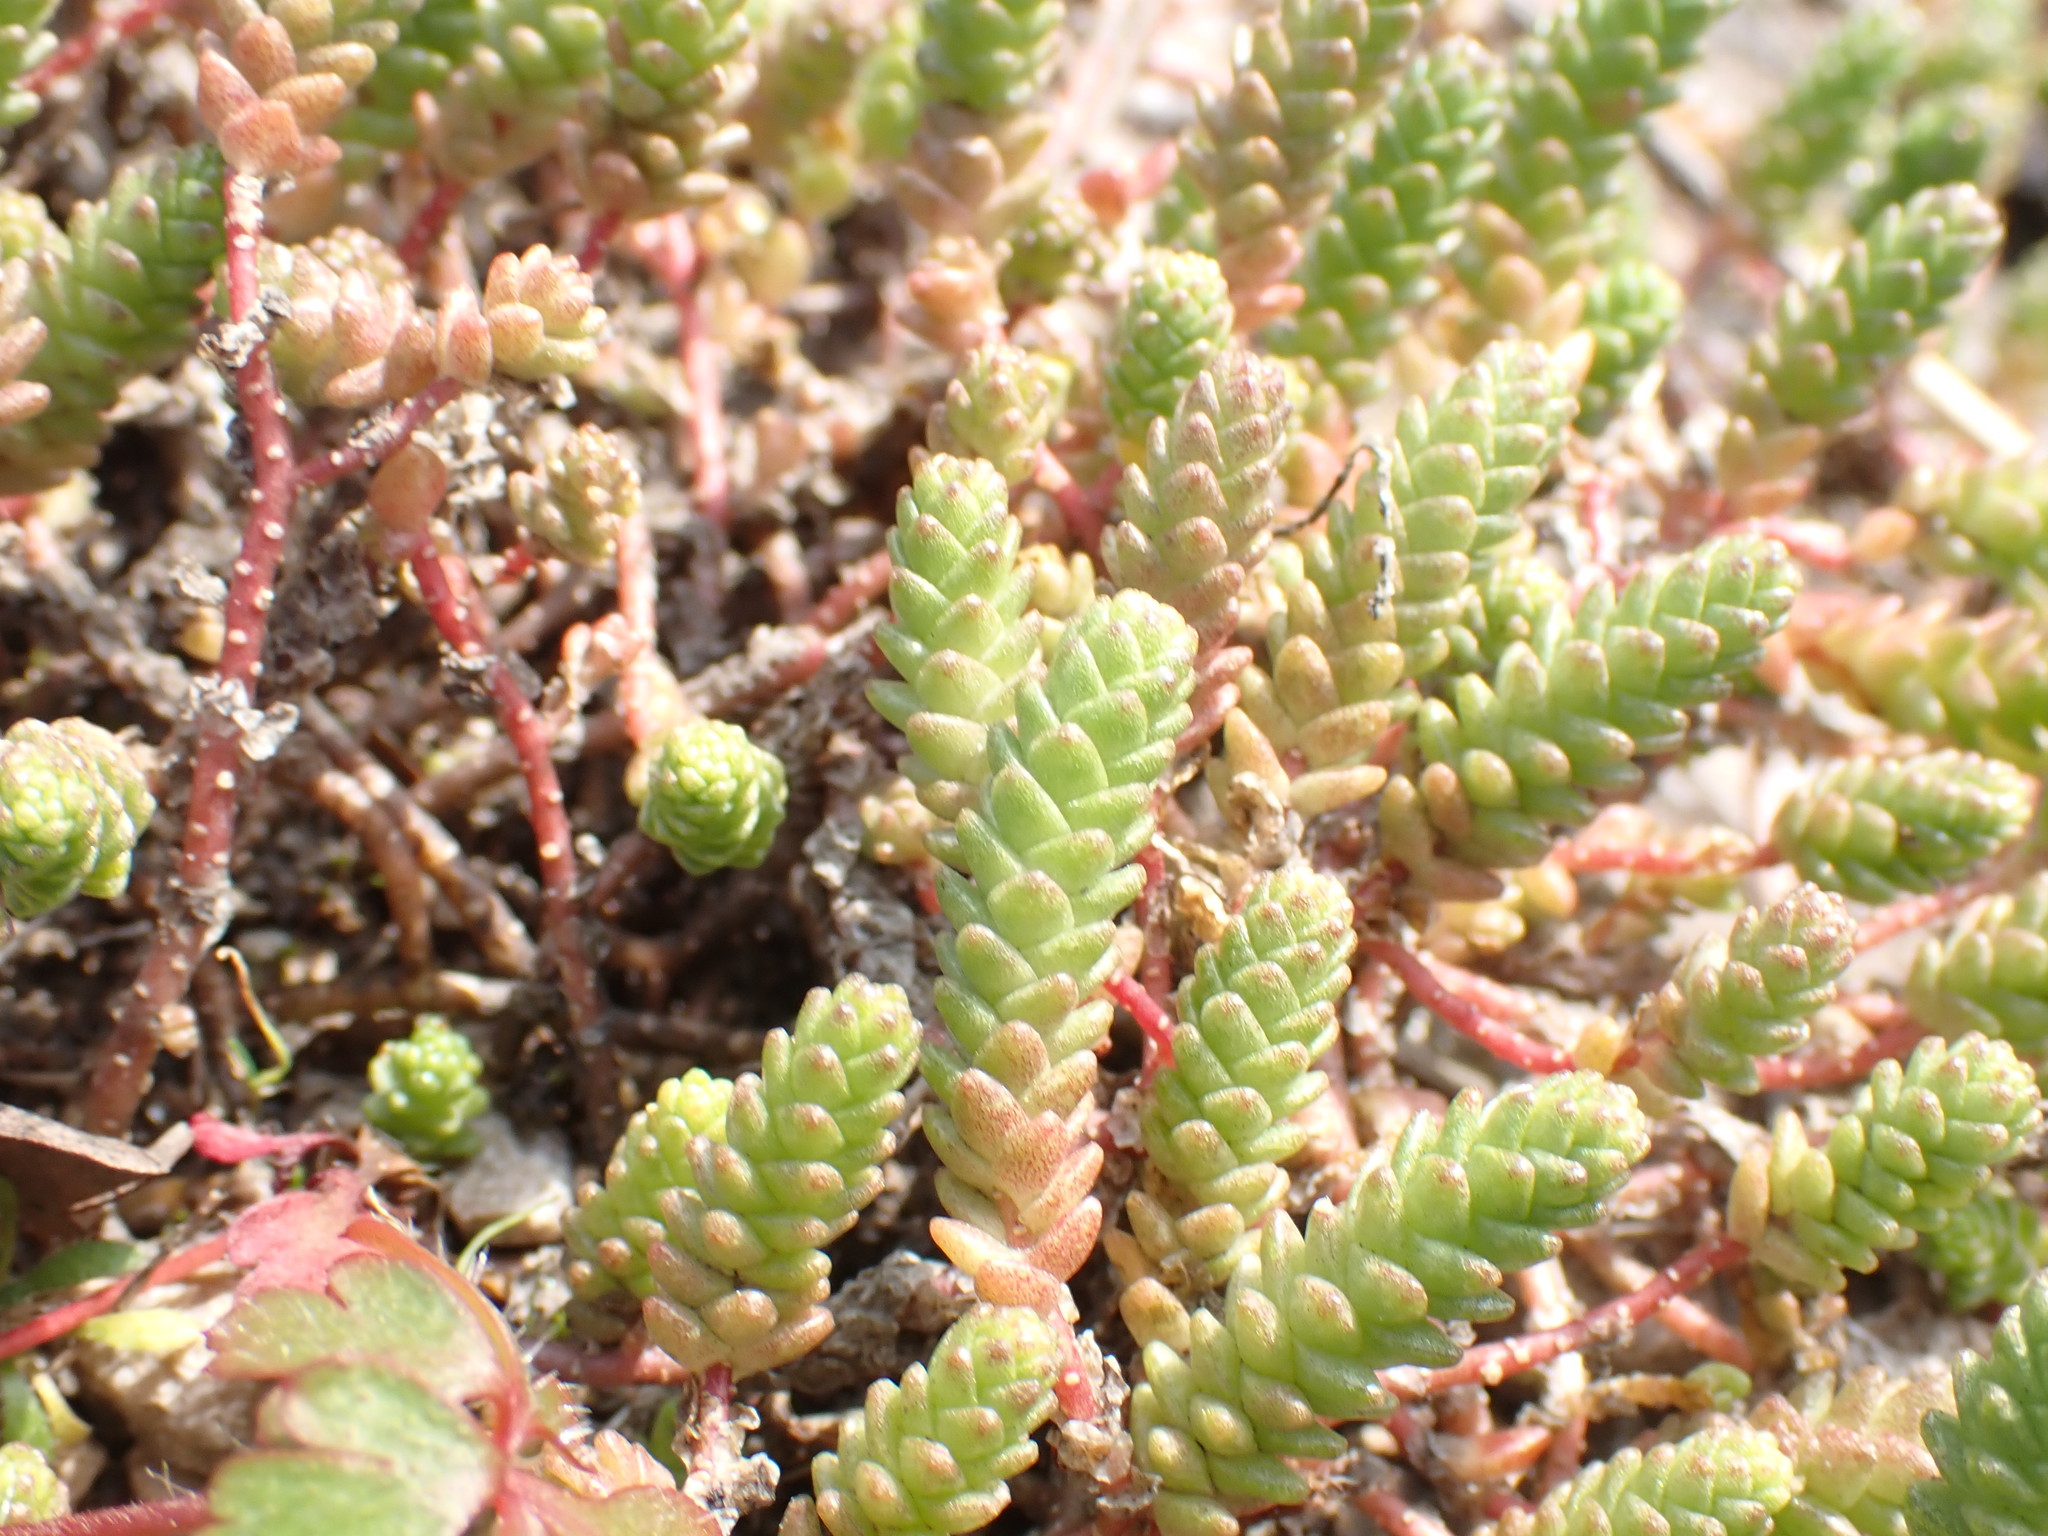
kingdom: Plantae
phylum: Tracheophyta
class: Magnoliopsida
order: Saxifragales
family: Crassulaceae
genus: Sedum
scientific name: Sedum acre
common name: Biting stonecrop
